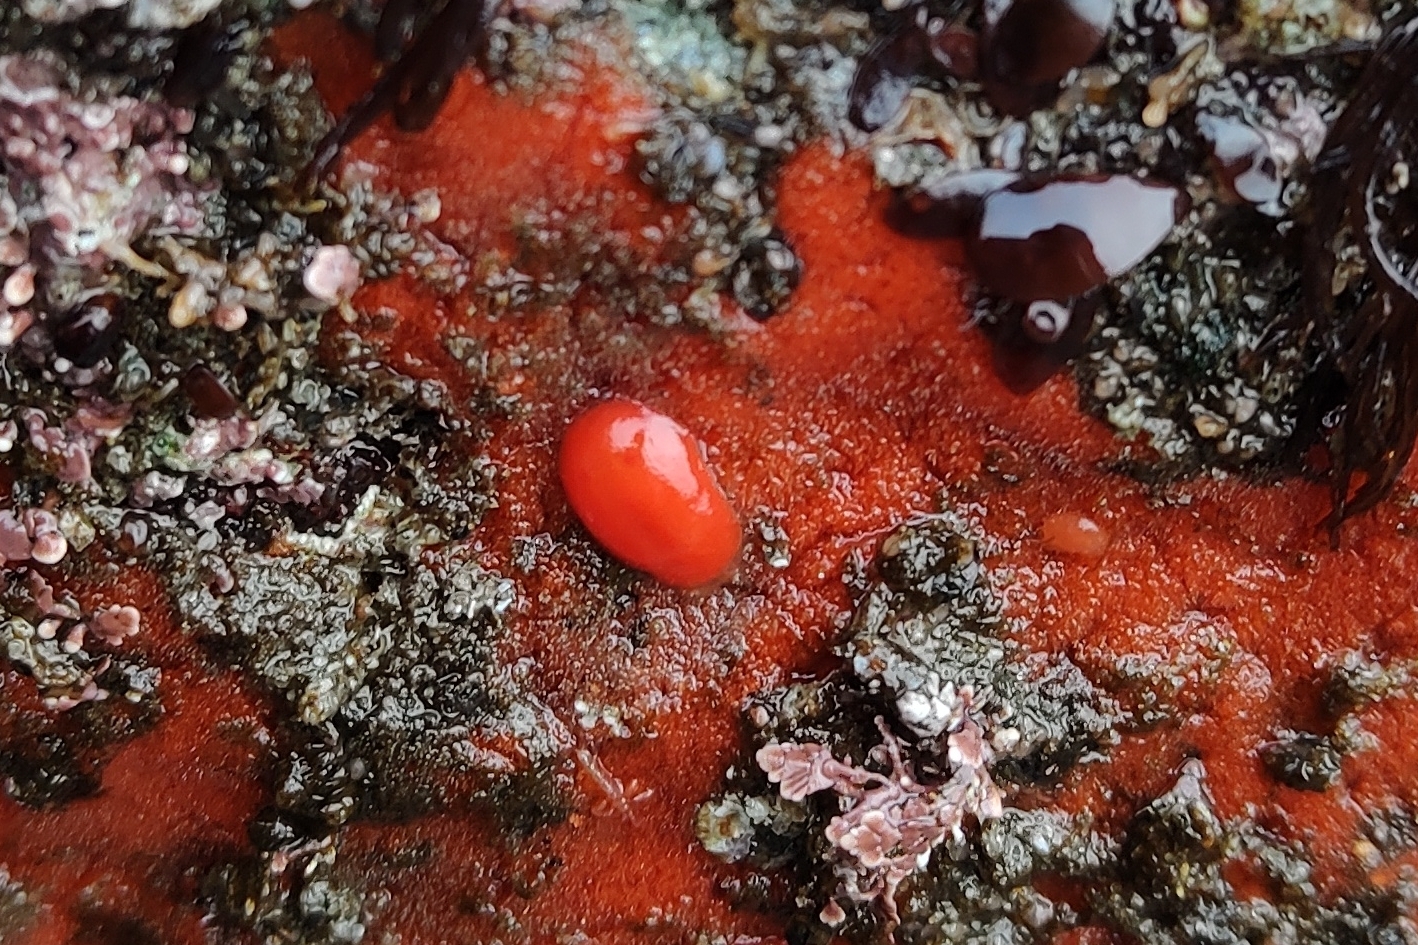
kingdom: Animalia
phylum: Mollusca
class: Gastropoda
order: Nudibranchia
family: Discodorididae
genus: Rostanga
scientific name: Rostanga pulchra
